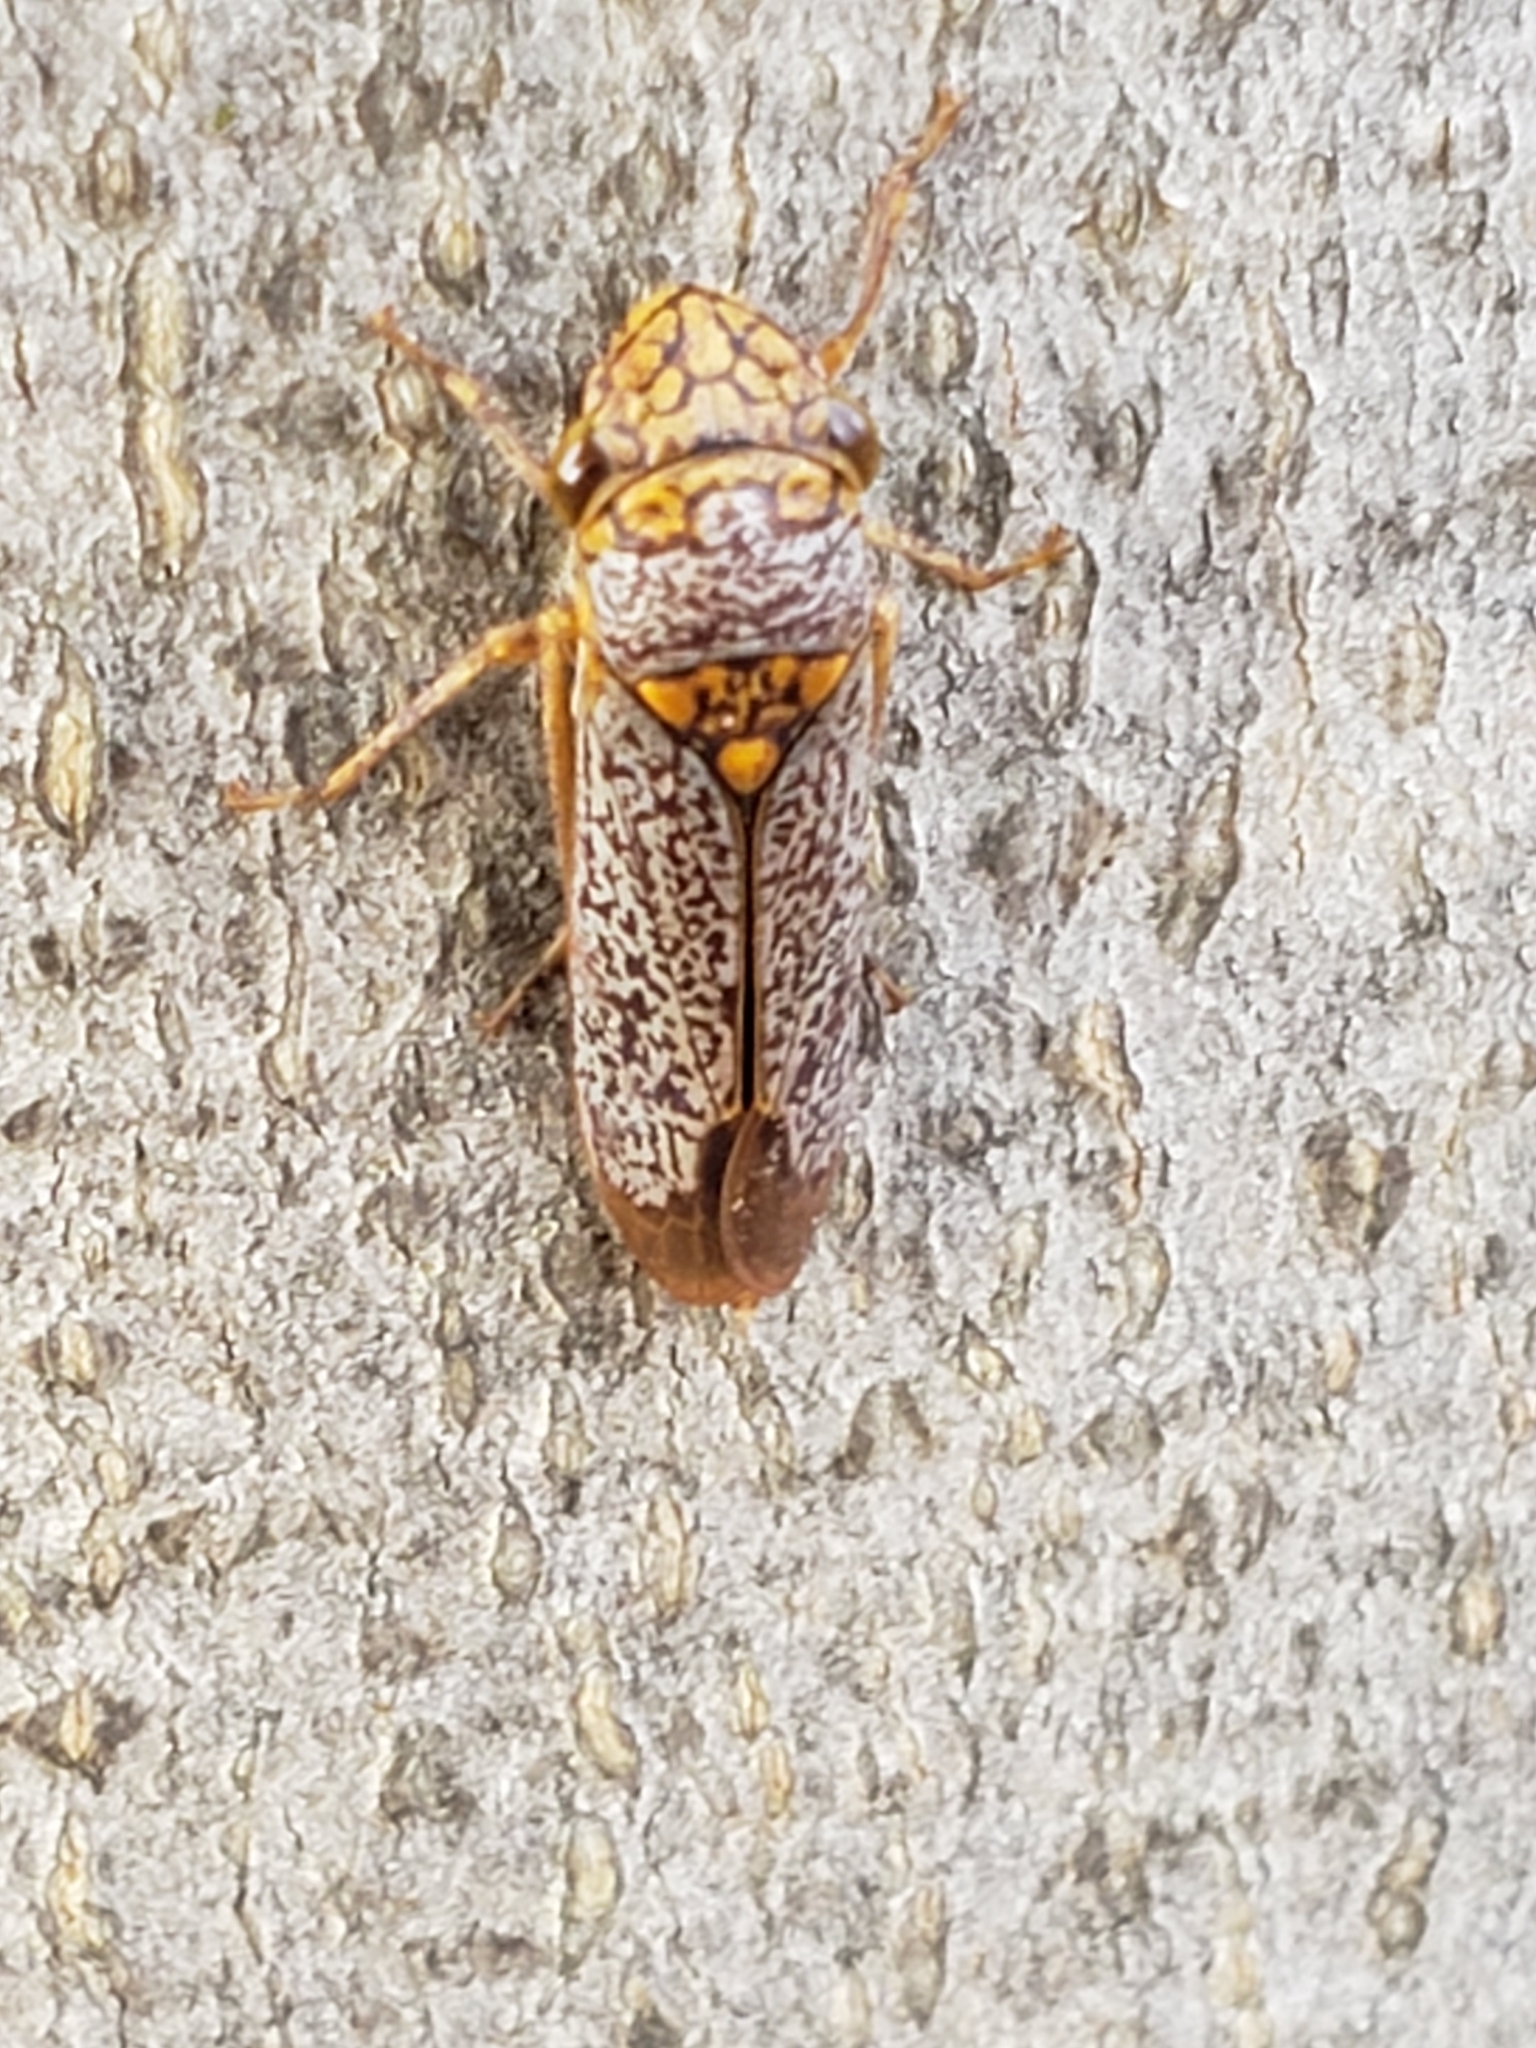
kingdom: Animalia
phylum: Arthropoda
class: Insecta
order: Hemiptera
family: Cicadellidae
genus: Oncometopia
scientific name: Oncometopia orbona
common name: Broad-headed sharpshooter
